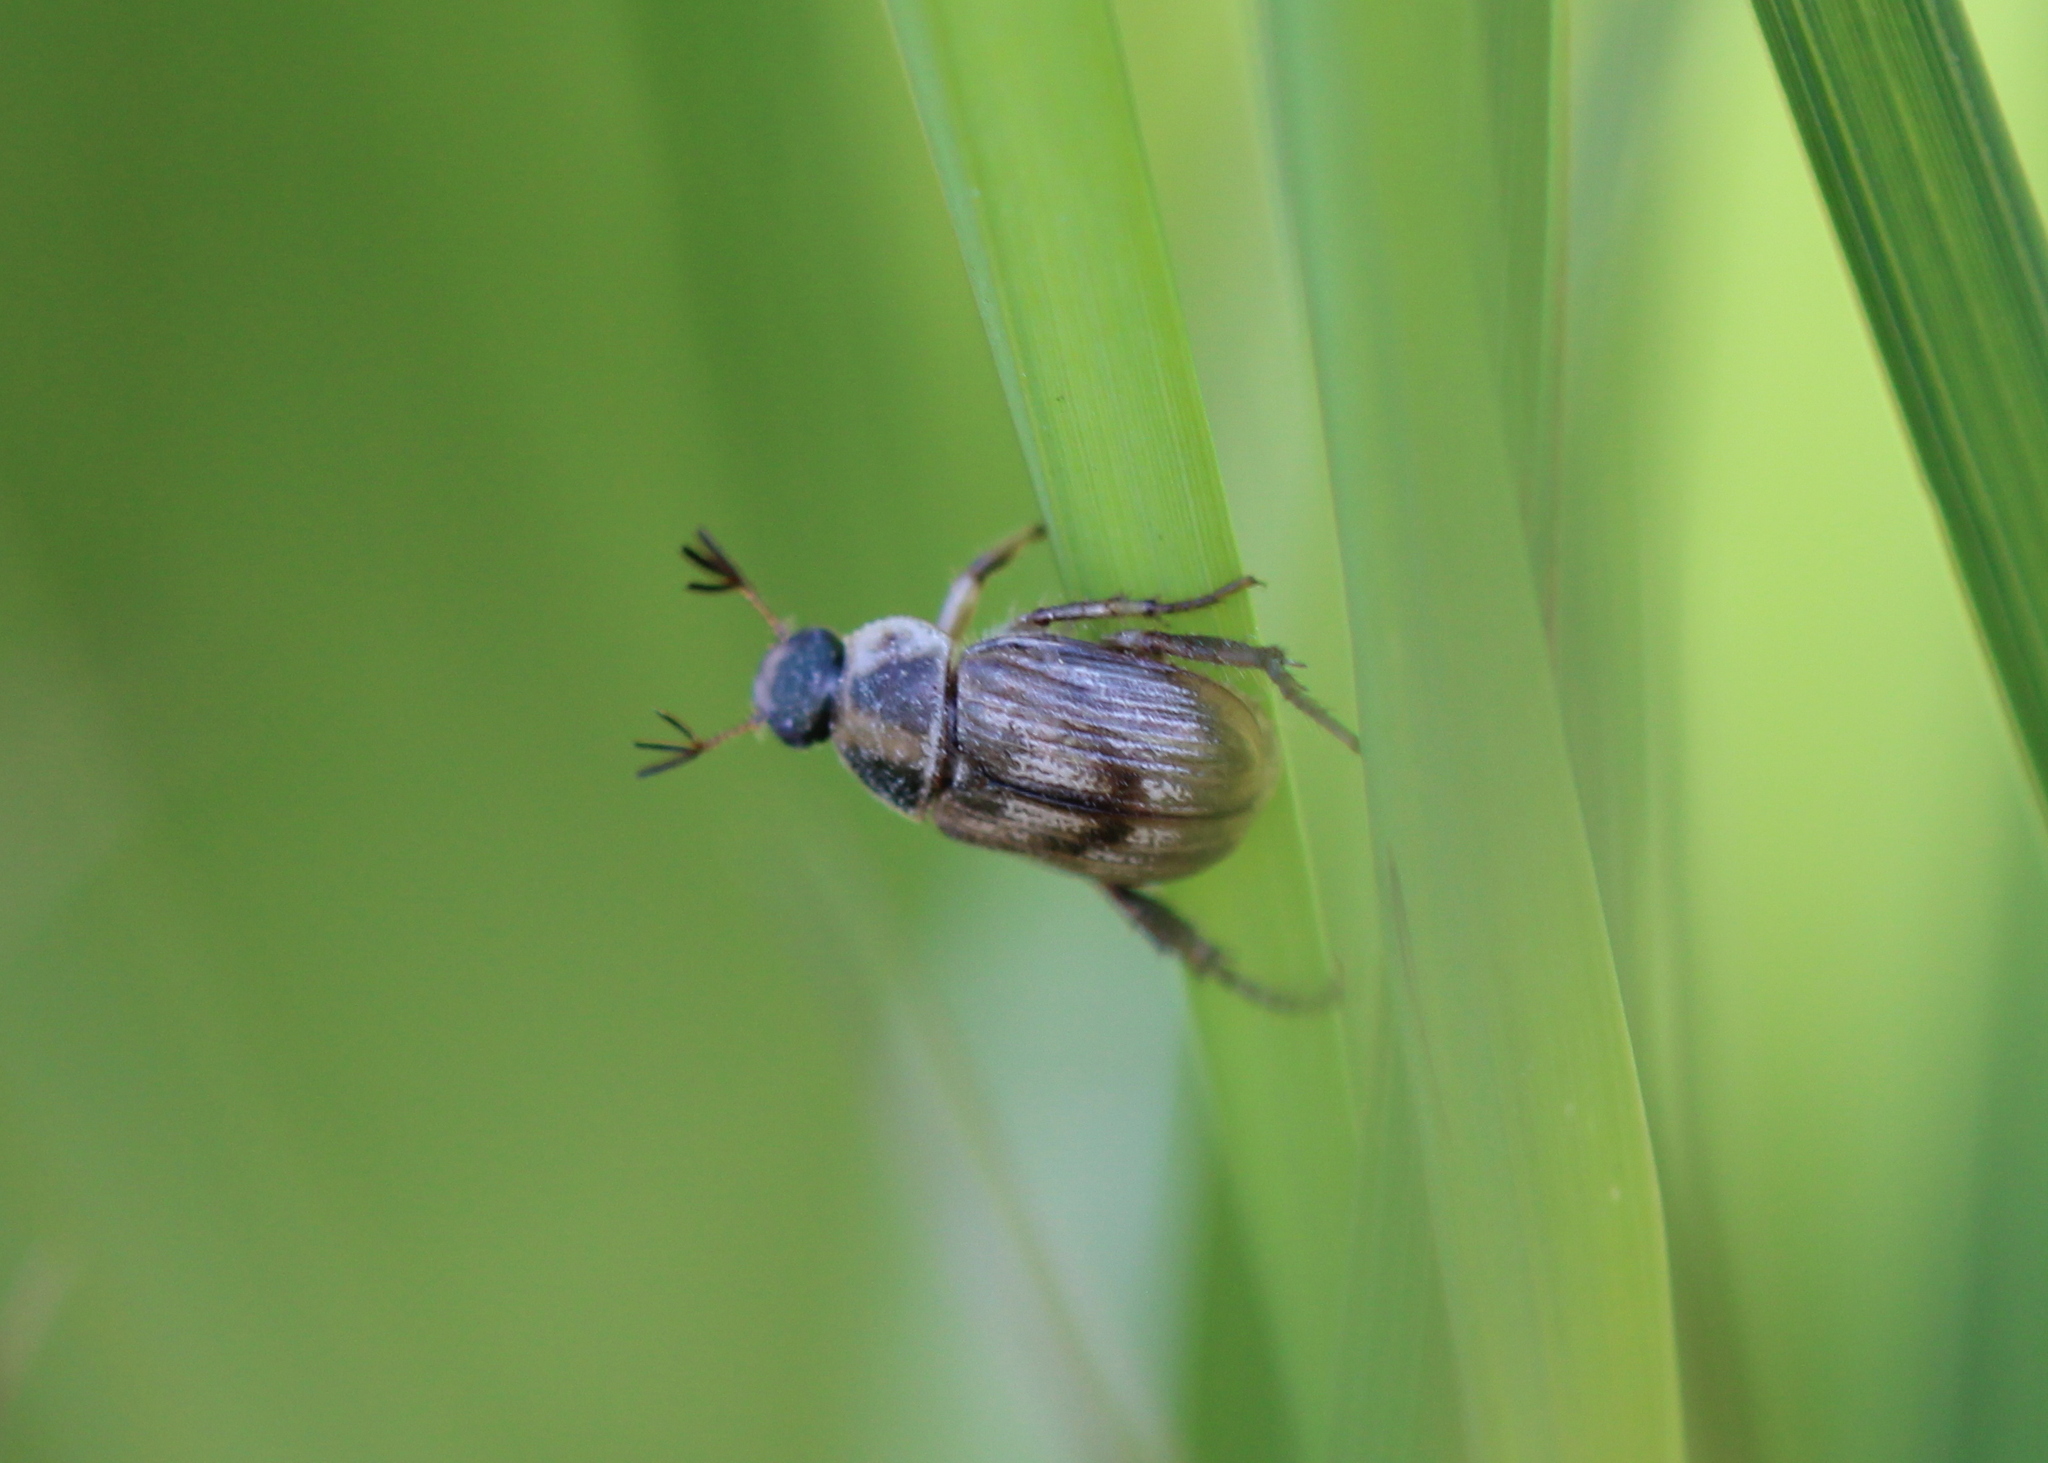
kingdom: Animalia
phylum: Arthropoda
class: Insecta
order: Coleoptera
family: Scarabaeidae
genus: Exomala
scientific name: Exomala orientalis
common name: Oriental beetle
